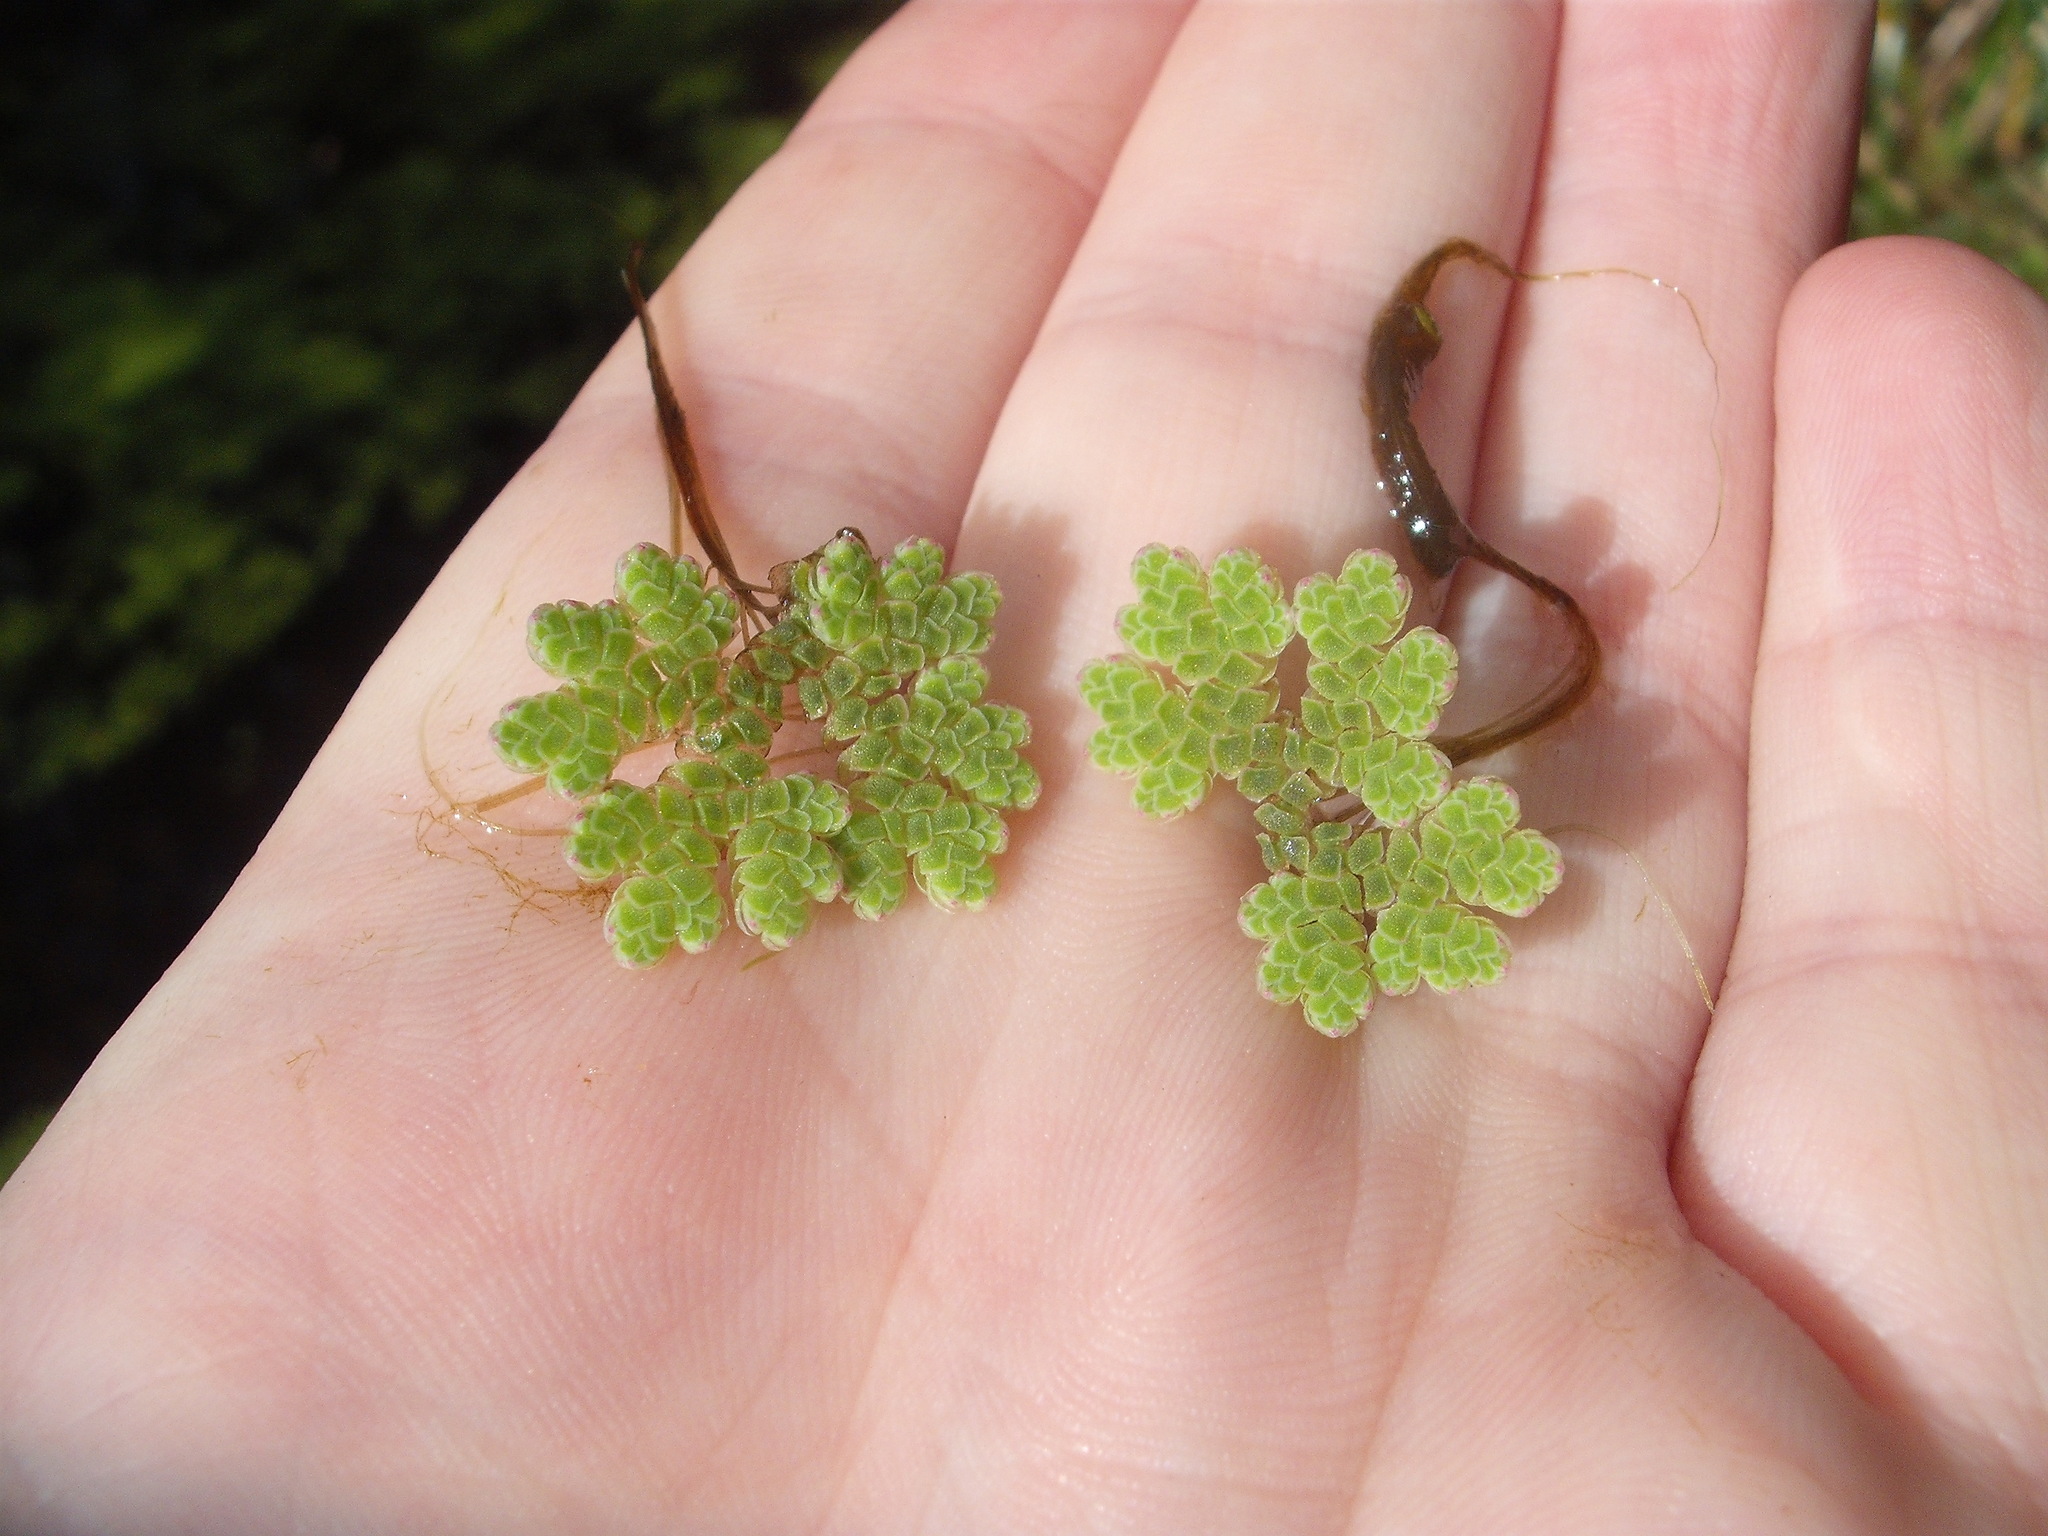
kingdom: Plantae
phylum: Tracheophyta
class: Polypodiopsida
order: Salviniales
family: Salviniaceae
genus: Azolla
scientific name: Azolla rubra
